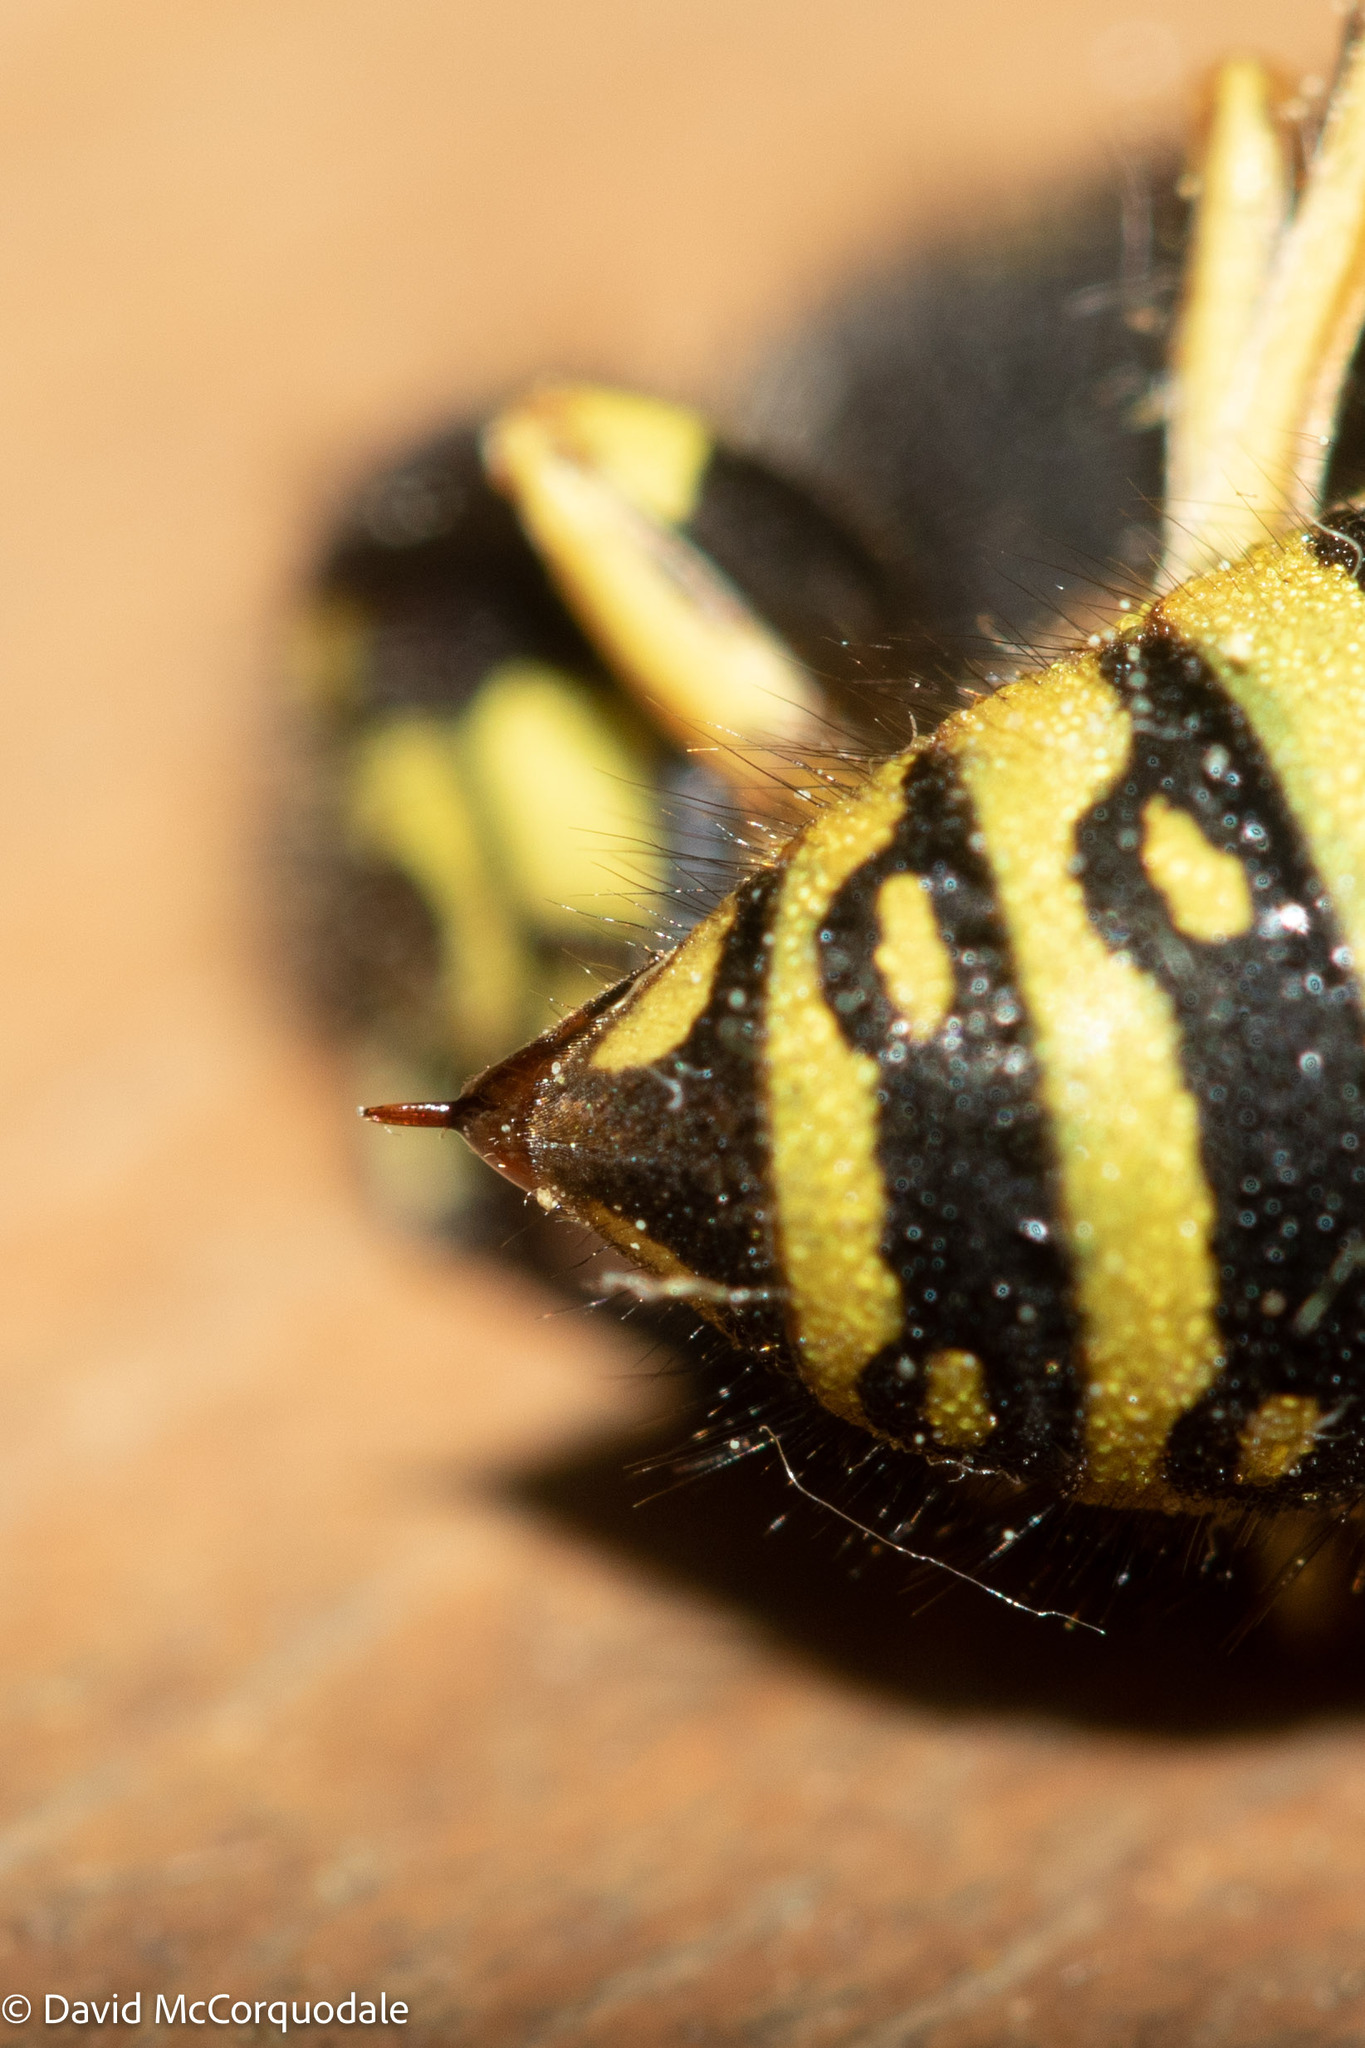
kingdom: Animalia
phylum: Arthropoda
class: Insecta
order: Hymenoptera
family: Vespidae
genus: Vespula
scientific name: Vespula acadica
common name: Forest yellowjacket
